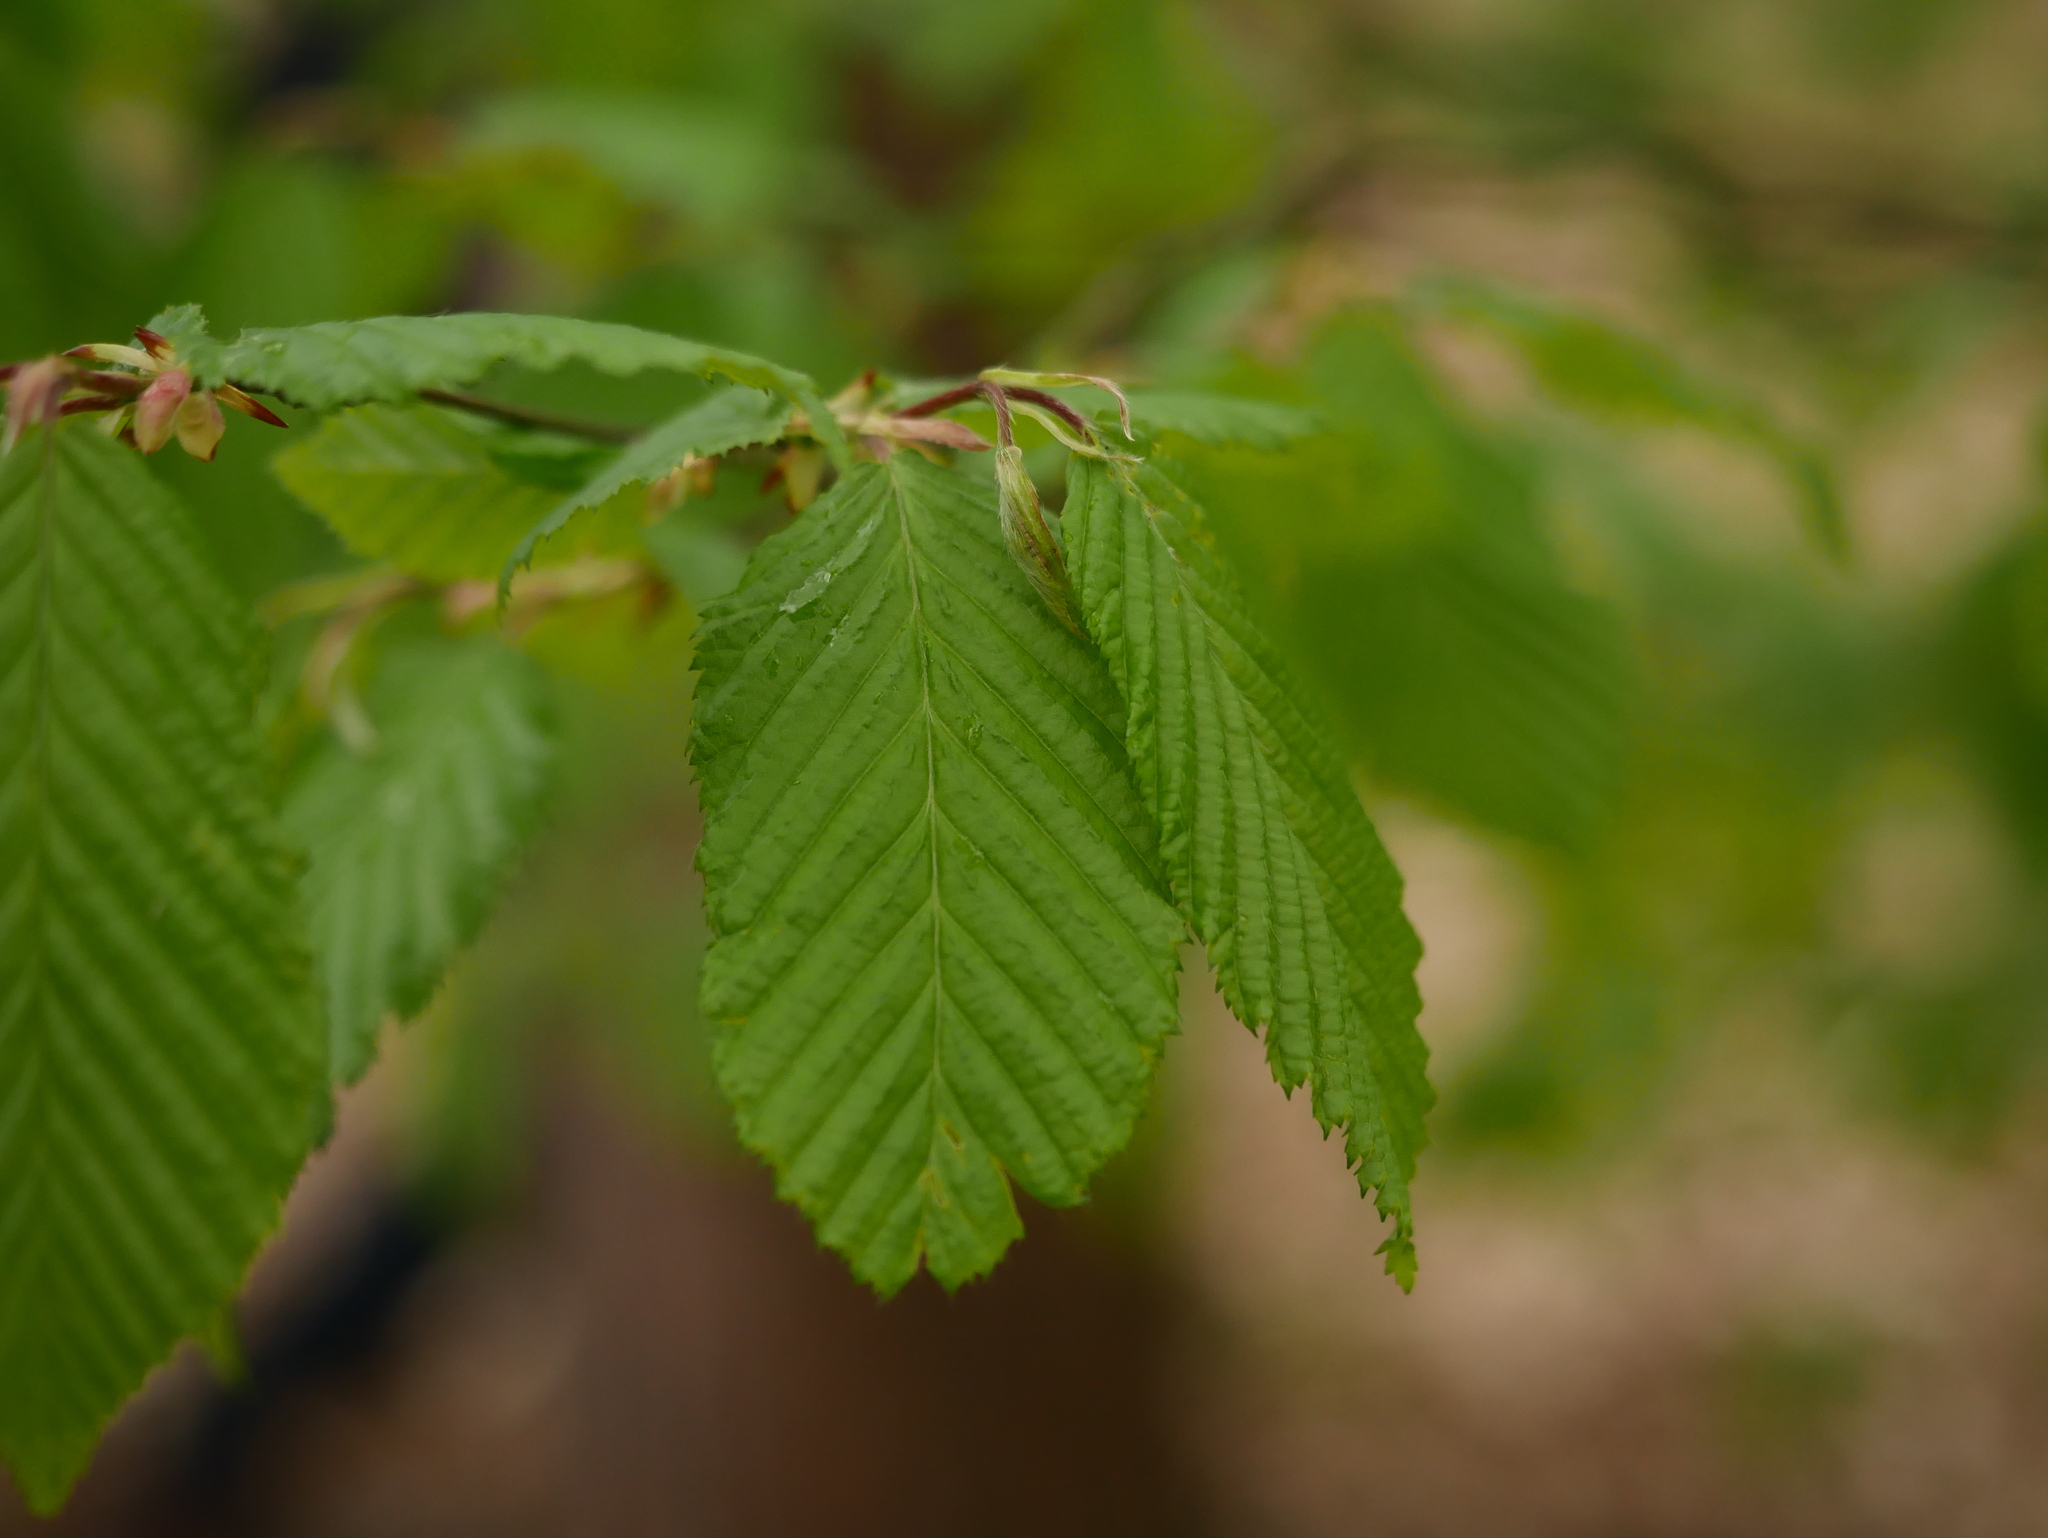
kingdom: Plantae
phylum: Tracheophyta
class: Magnoliopsida
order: Fagales
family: Betulaceae
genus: Carpinus
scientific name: Carpinus betulus
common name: Hornbeam
